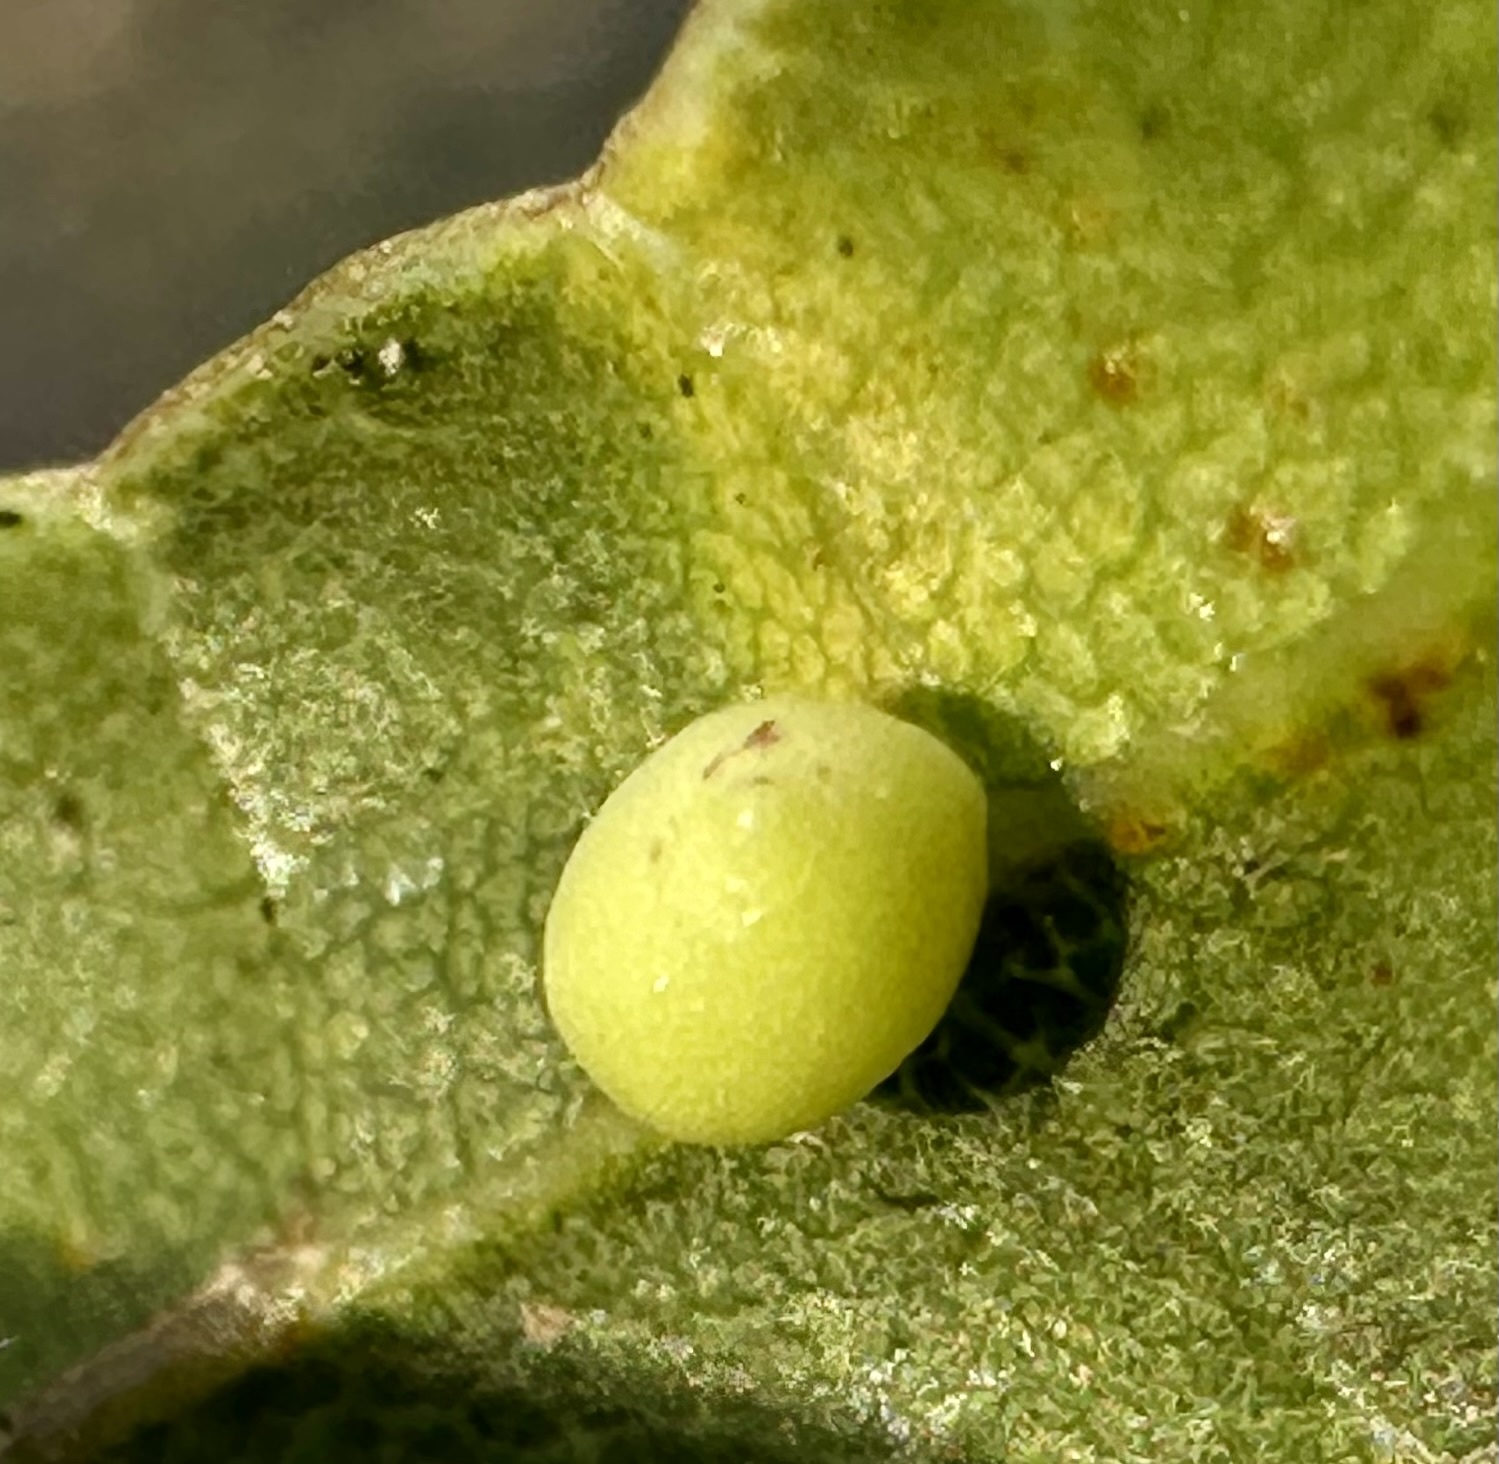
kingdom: Animalia
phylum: Arthropoda
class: Insecta
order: Hymenoptera
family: Cynipidae
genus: Dryocosmus
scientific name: Dryocosmus
